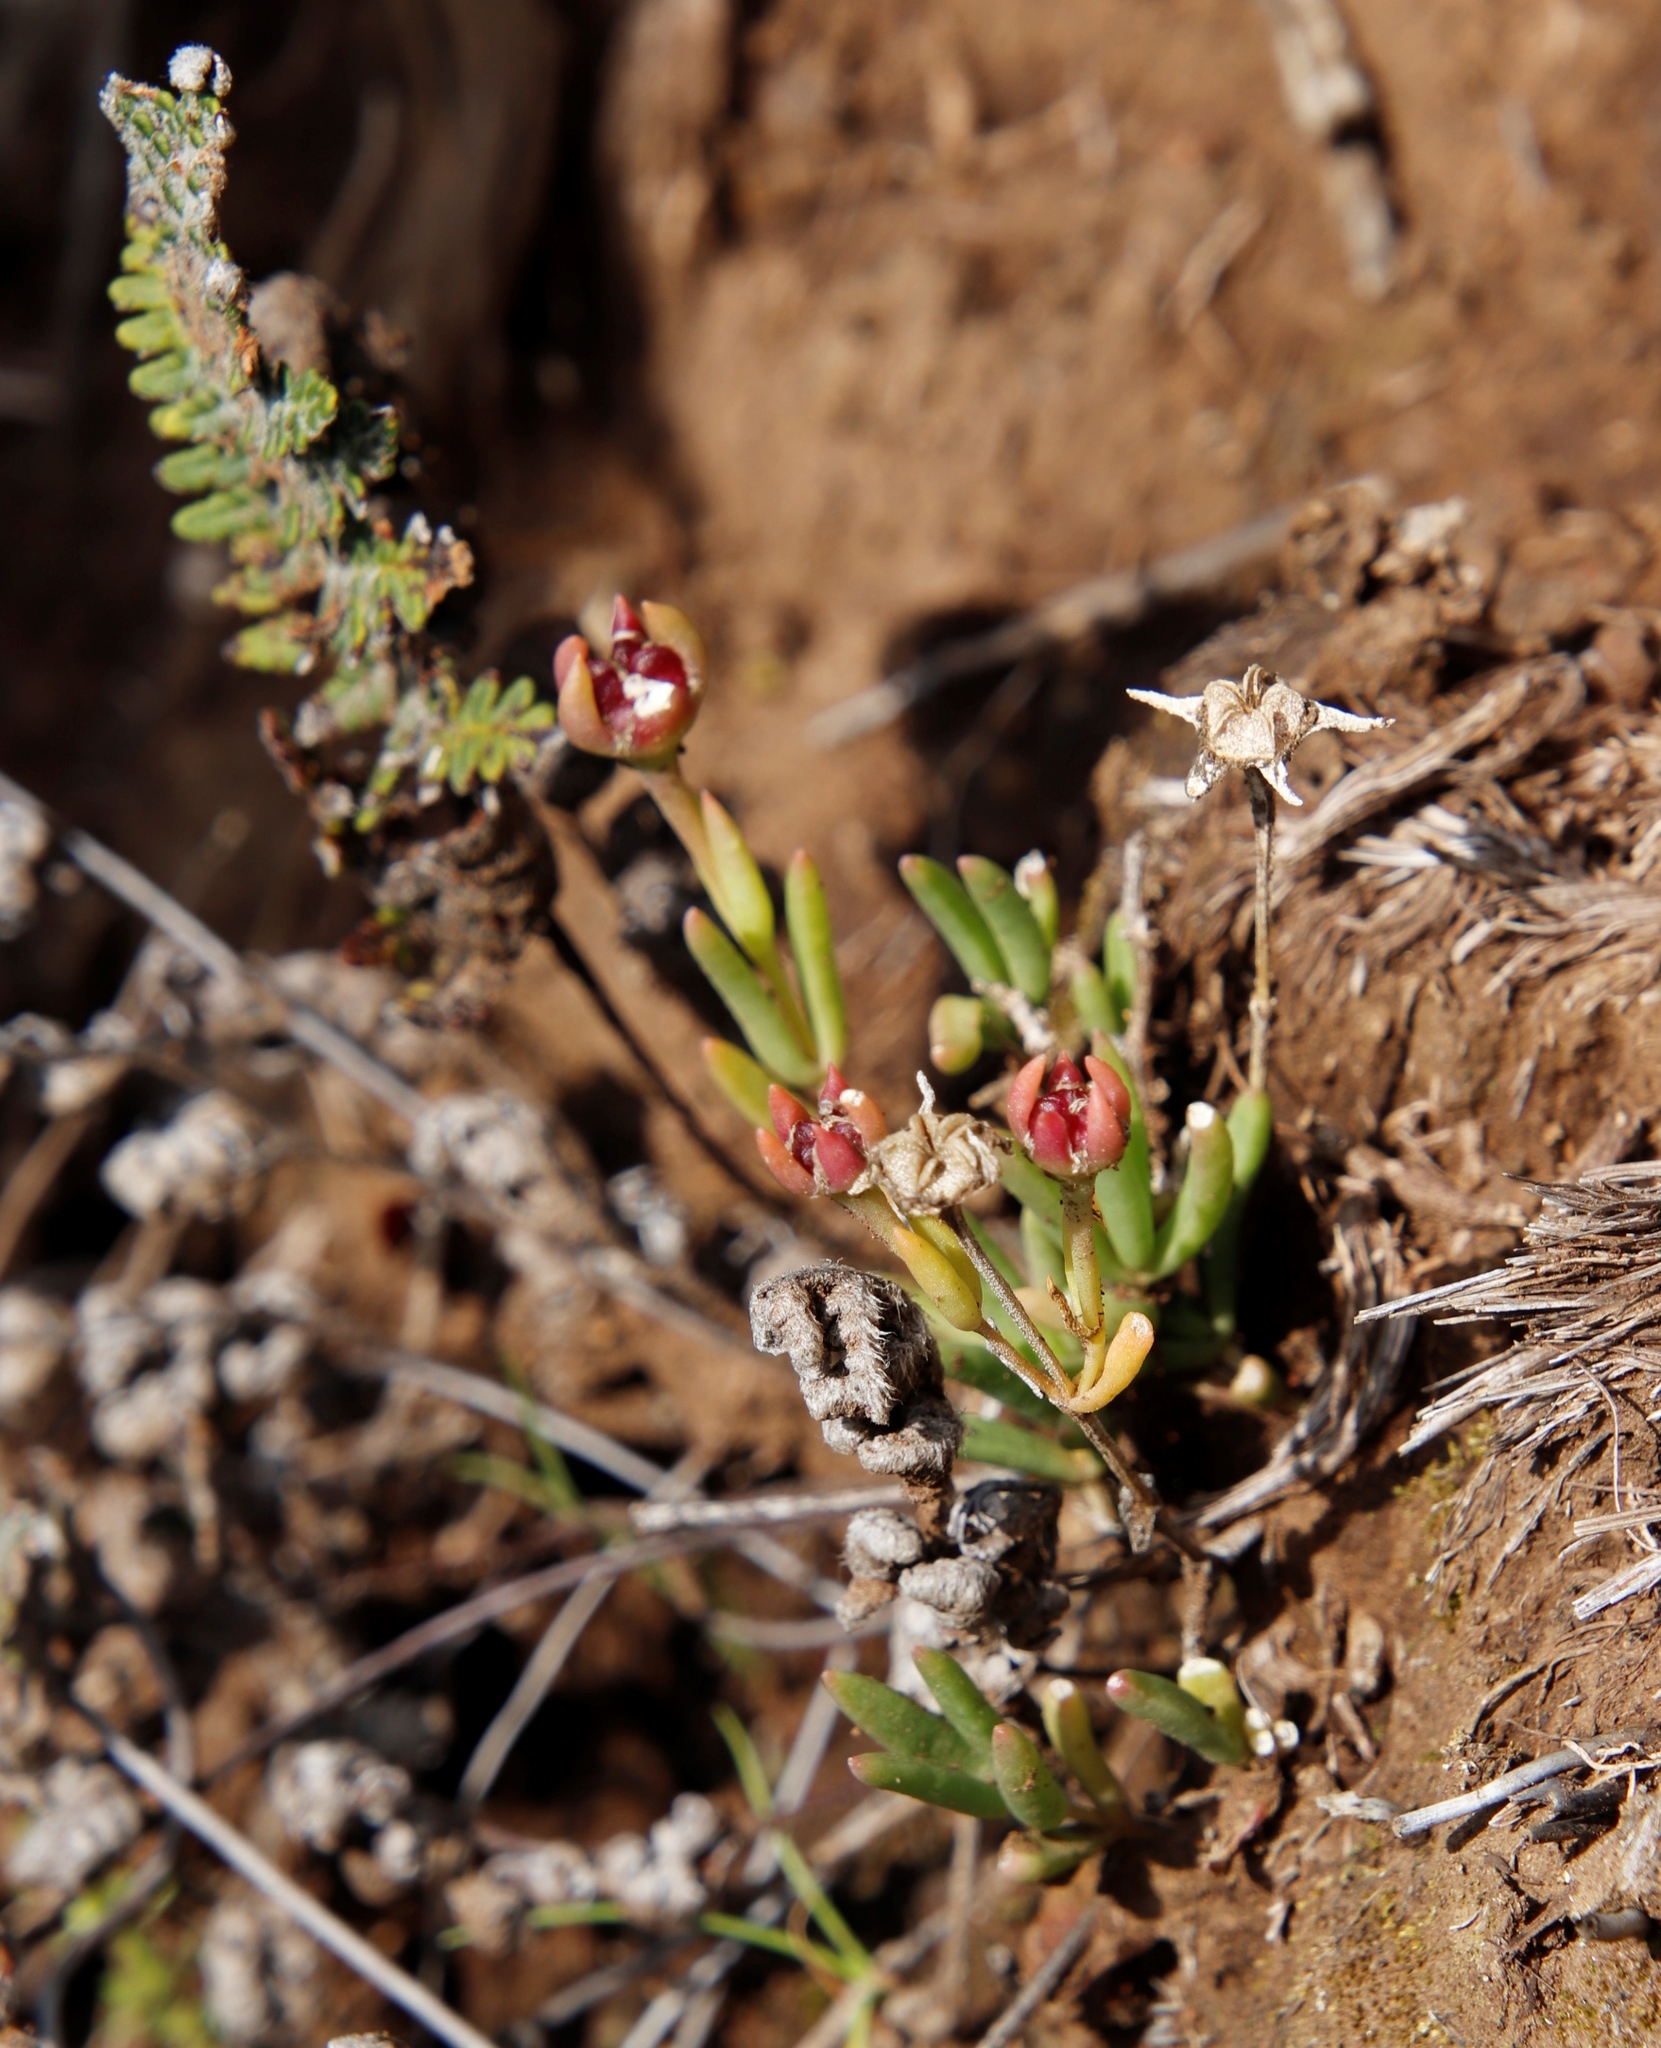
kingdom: Plantae
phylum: Tracheophyta
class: Magnoliopsida
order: Caryophyllales
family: Aizoaceae
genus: Delosperma
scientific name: Delosperma grantiae
